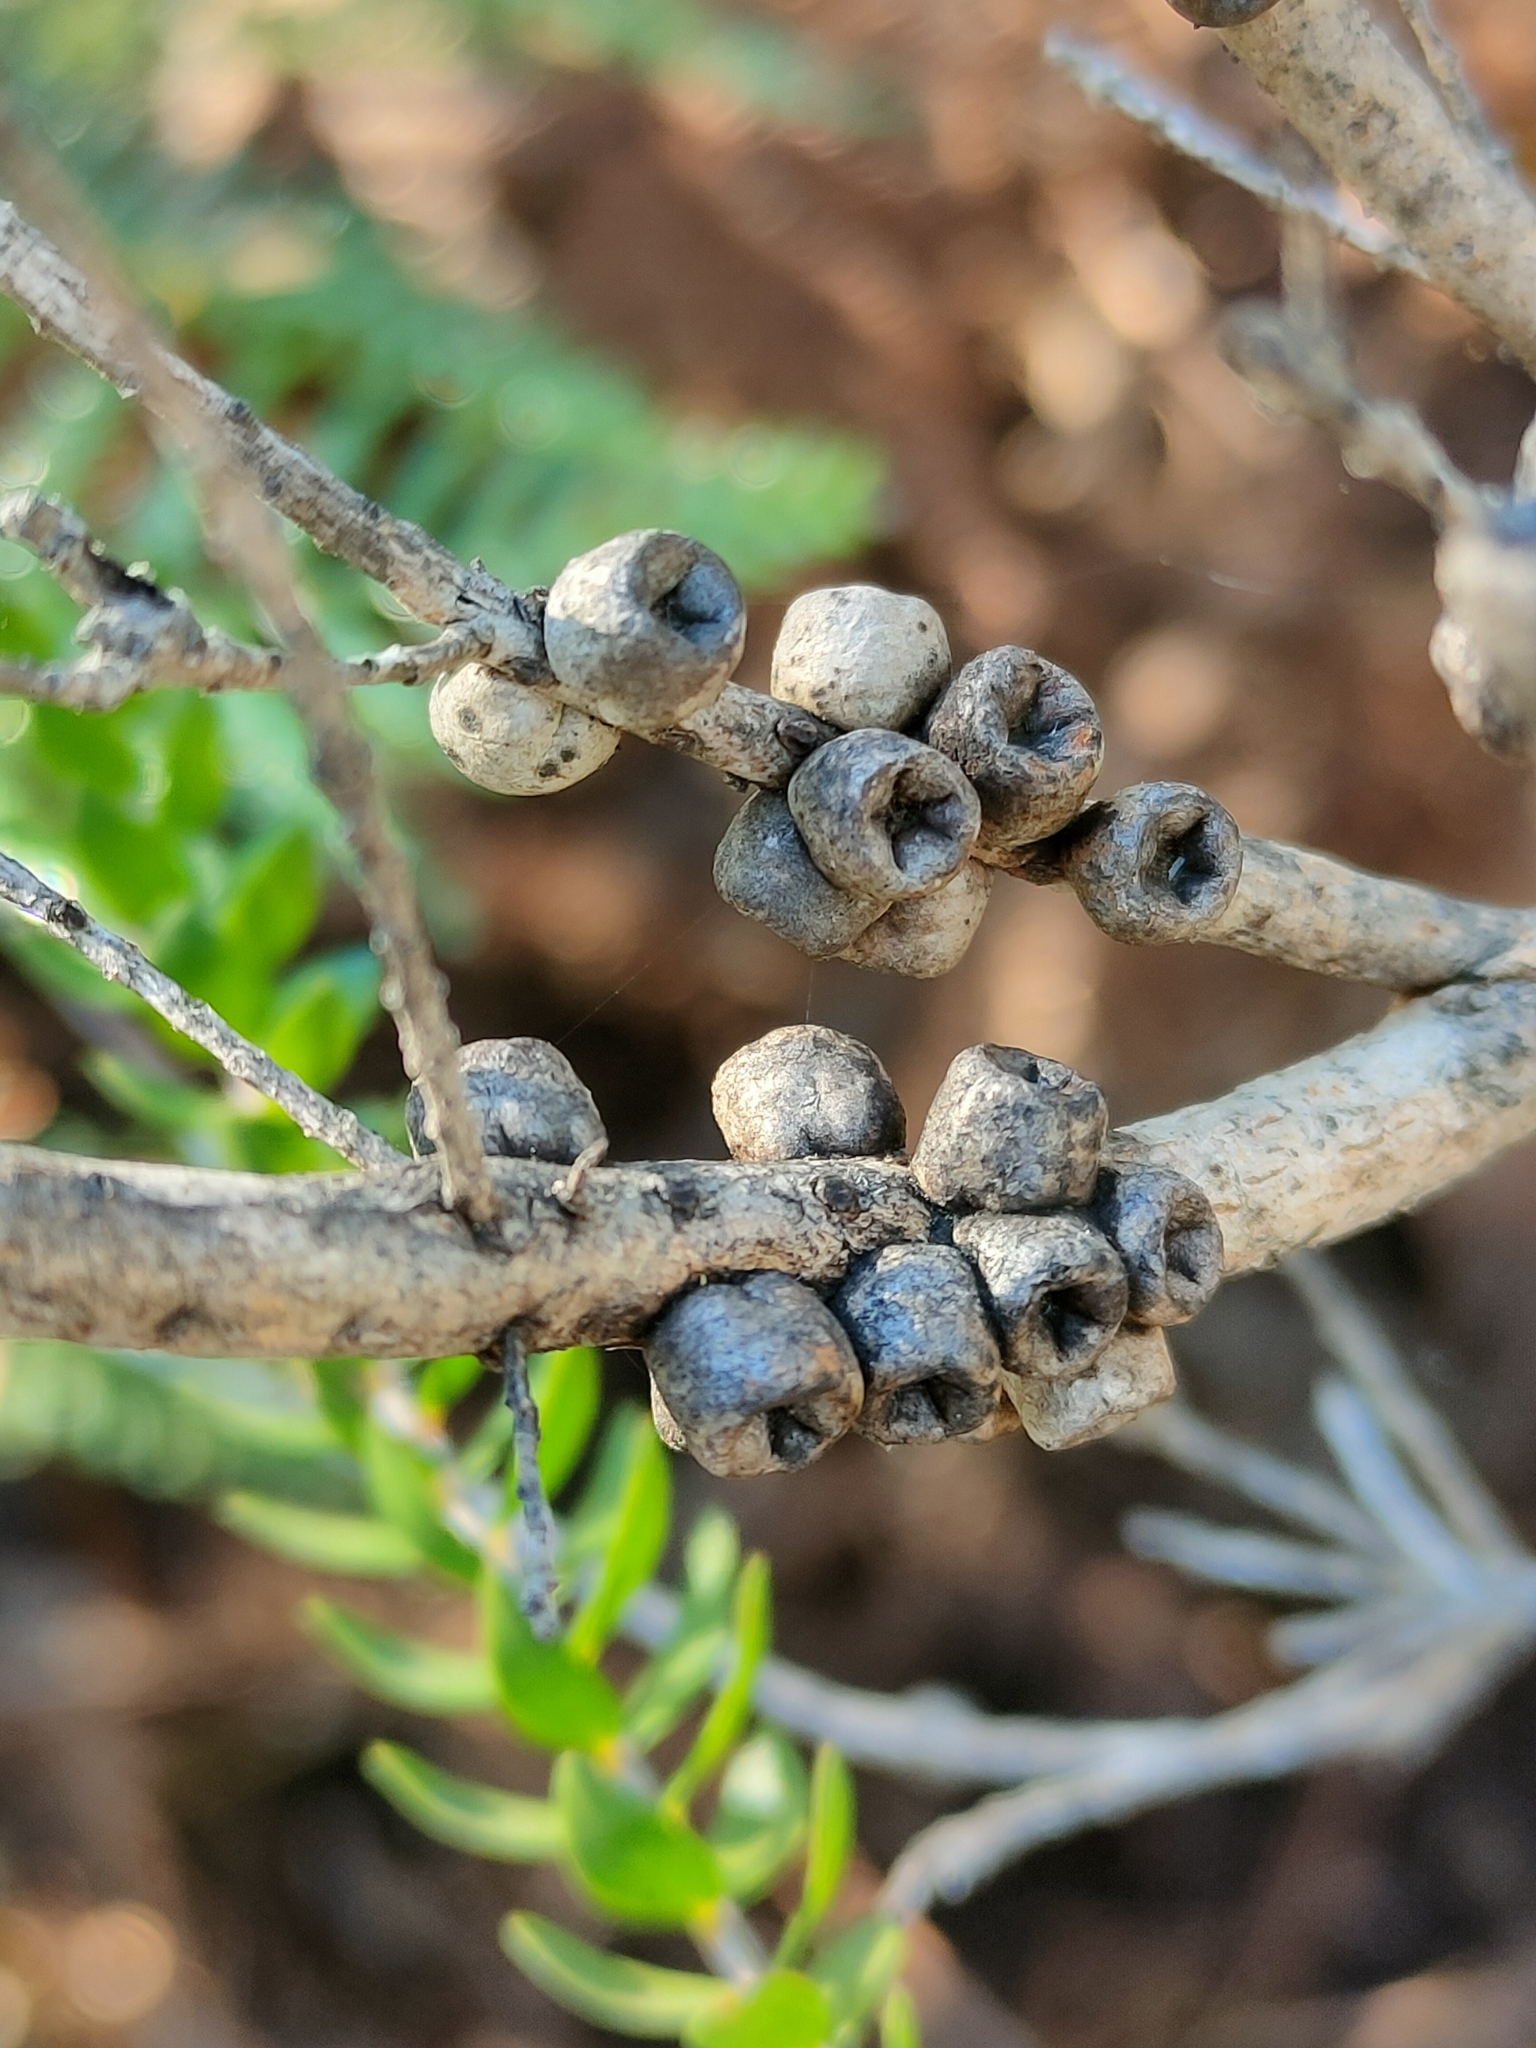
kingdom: Plantae
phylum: Tracheophyta
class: Magnoliopsida
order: Myrtales
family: Myrtaceae
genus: Melaleuca
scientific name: Melaleuca squarrosa
